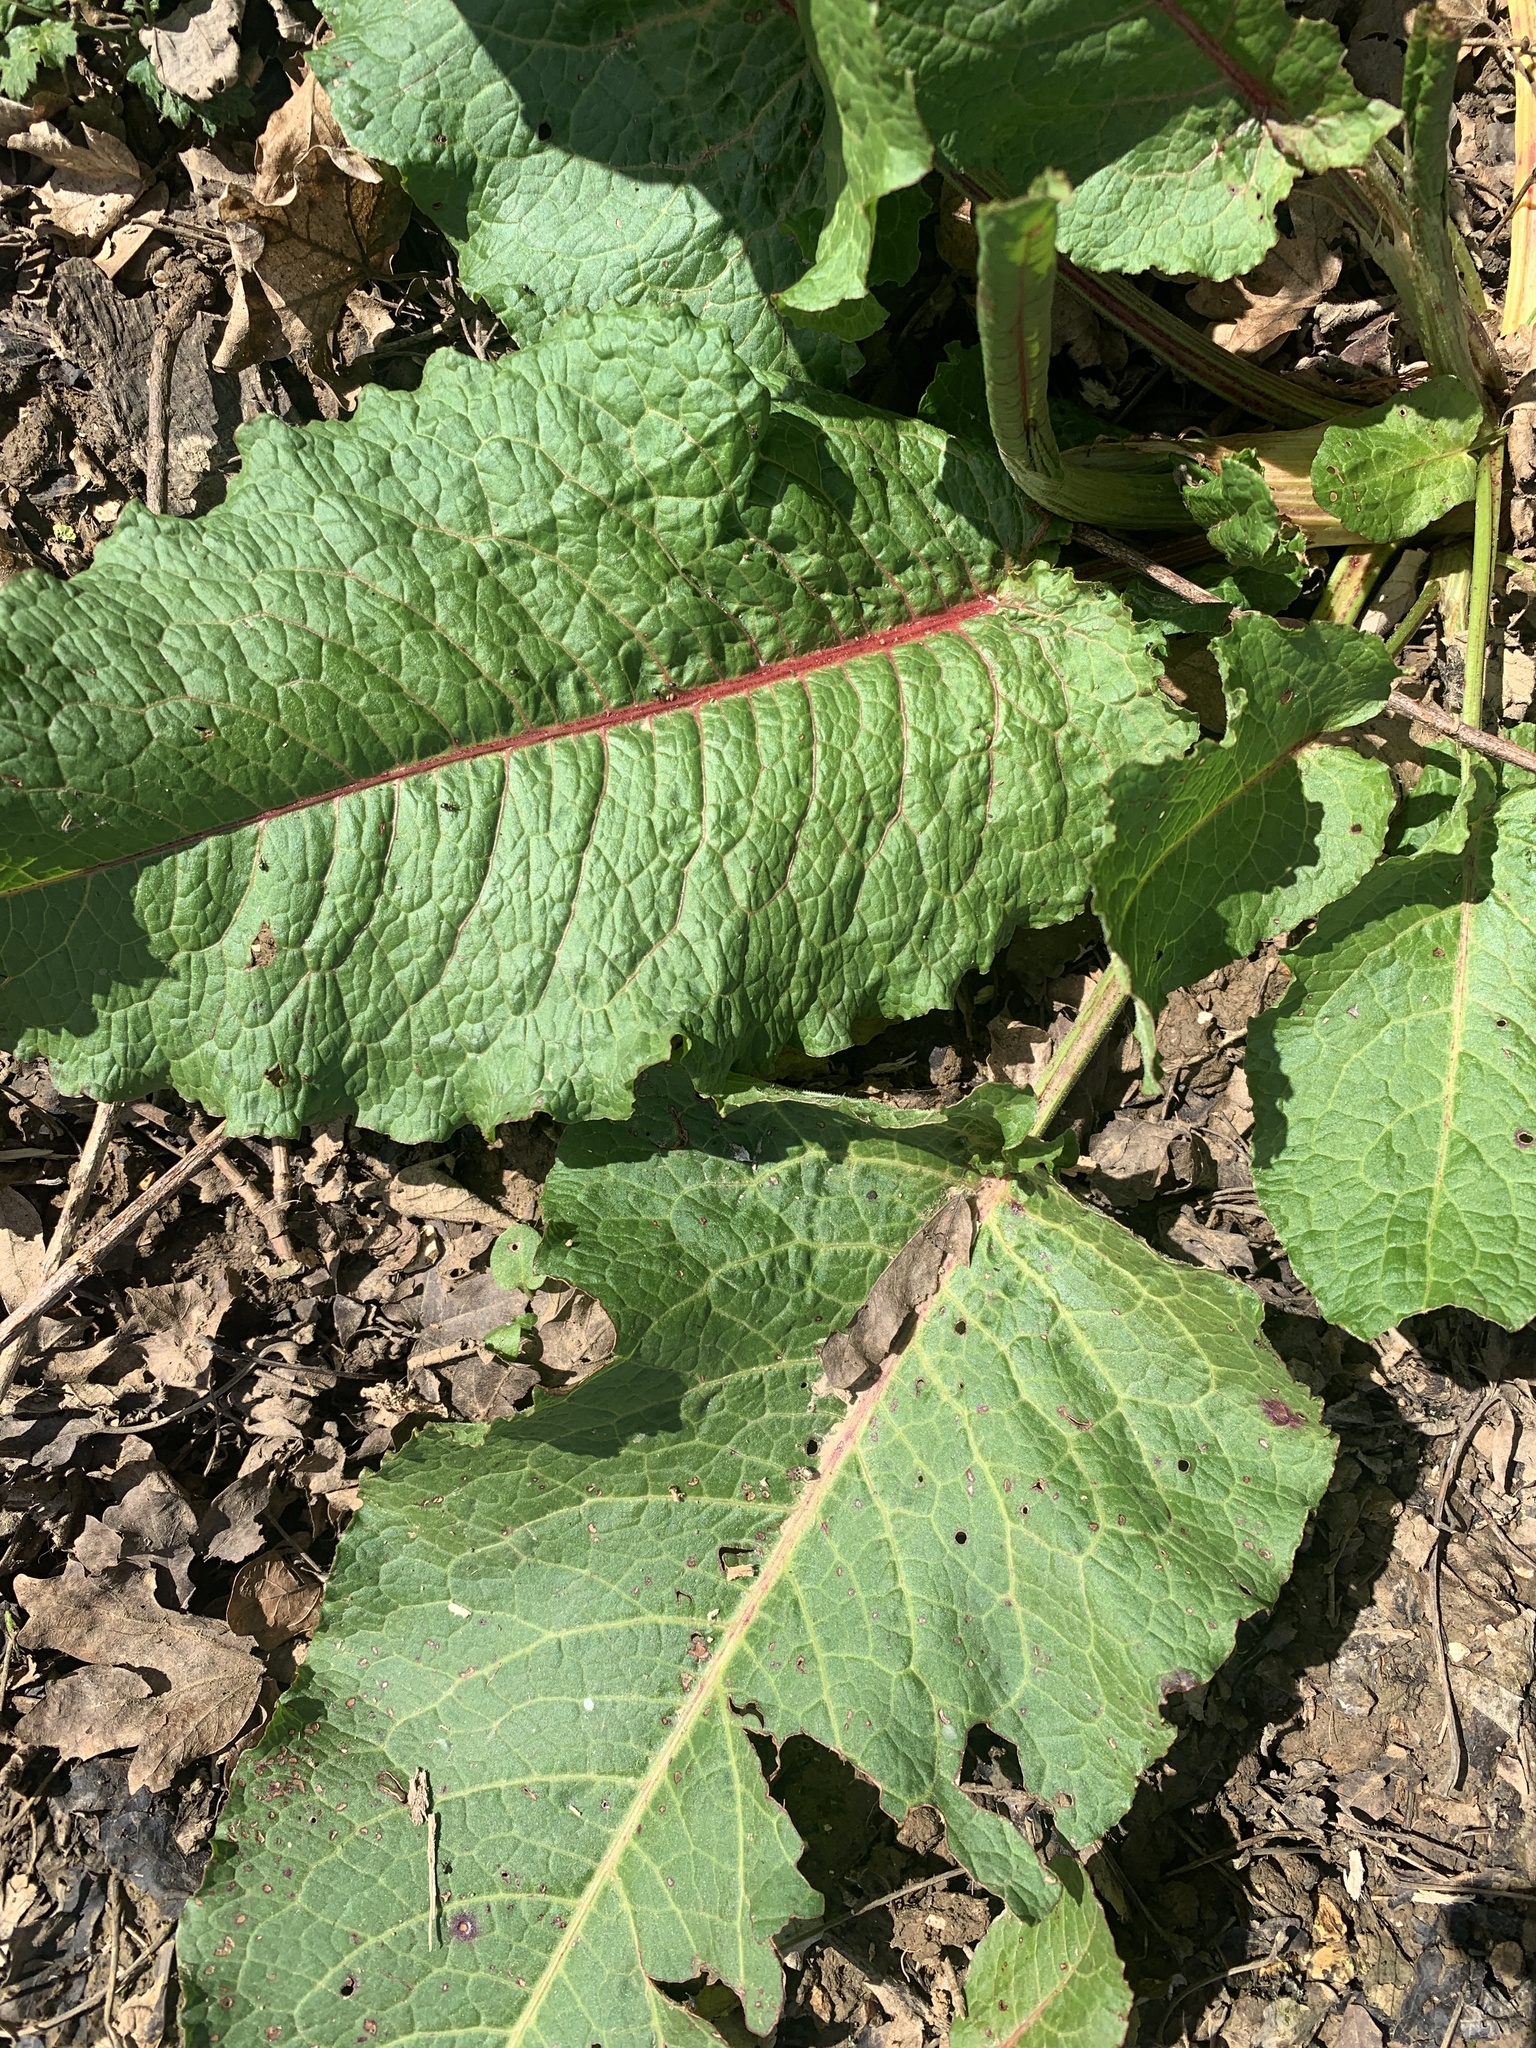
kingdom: Plantae
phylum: Tracheophyta
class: Magnoliopsida
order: Caryophyllales
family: Polygonaceae
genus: Rumex
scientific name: Rumex obtusifolius
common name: Bitter dock
